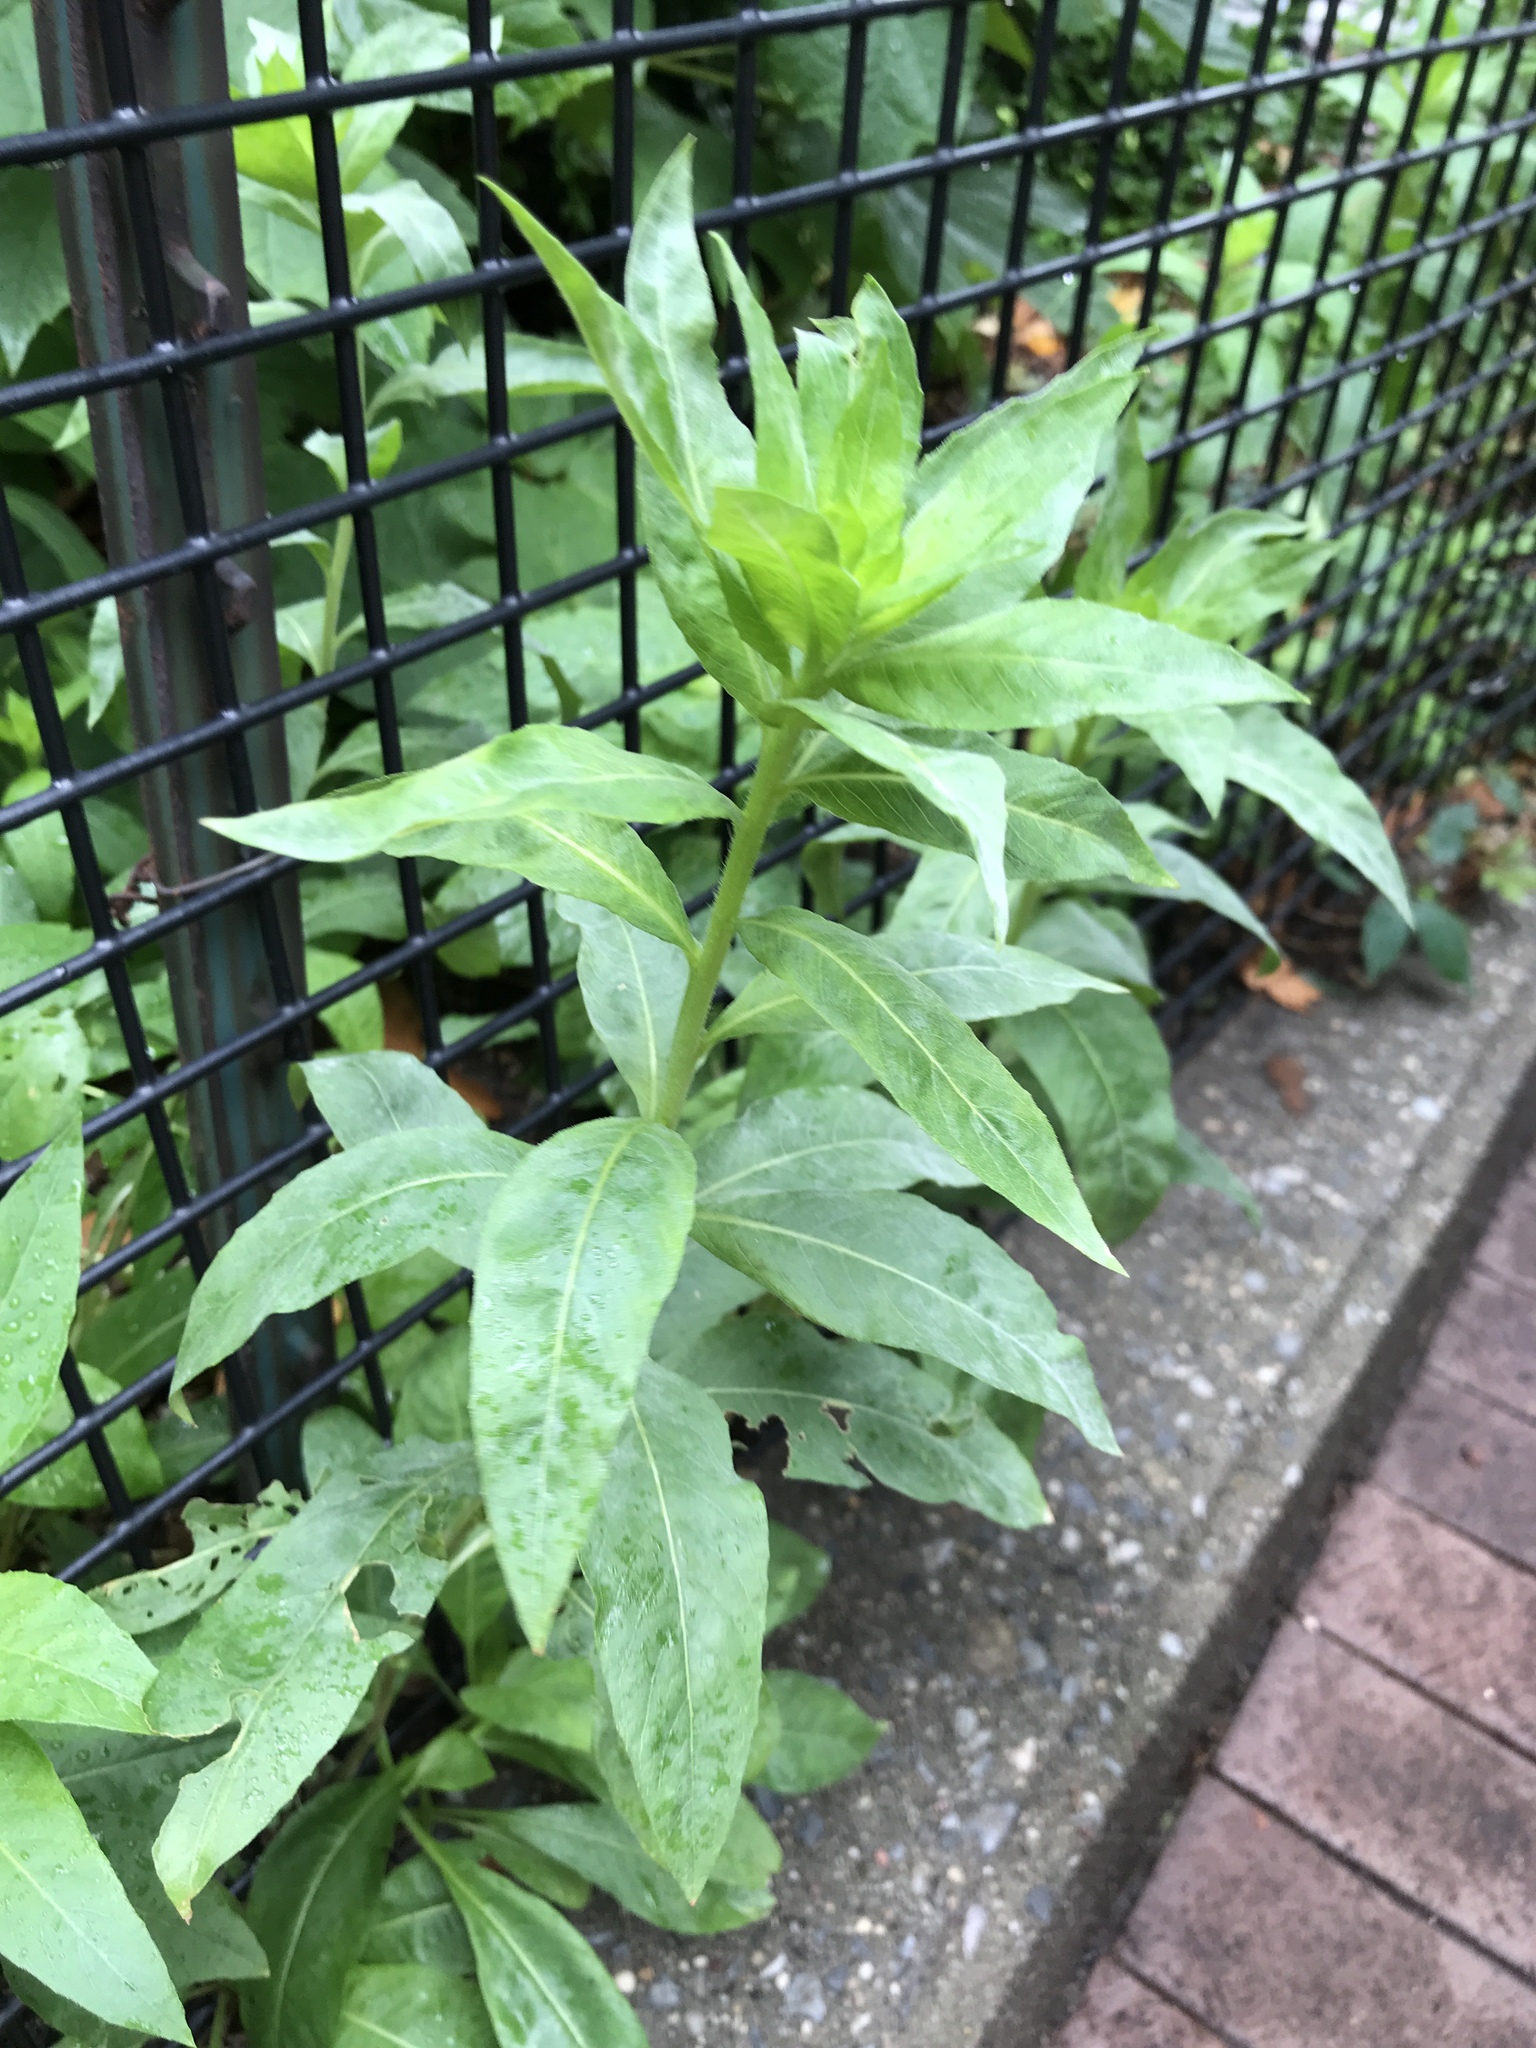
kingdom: Plantae
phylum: Tracheophyta
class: Magnoliopsida
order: Myrtales
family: Onagraceae
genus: Oenothera
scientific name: Oenothera biennis
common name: Common evening-primrose
